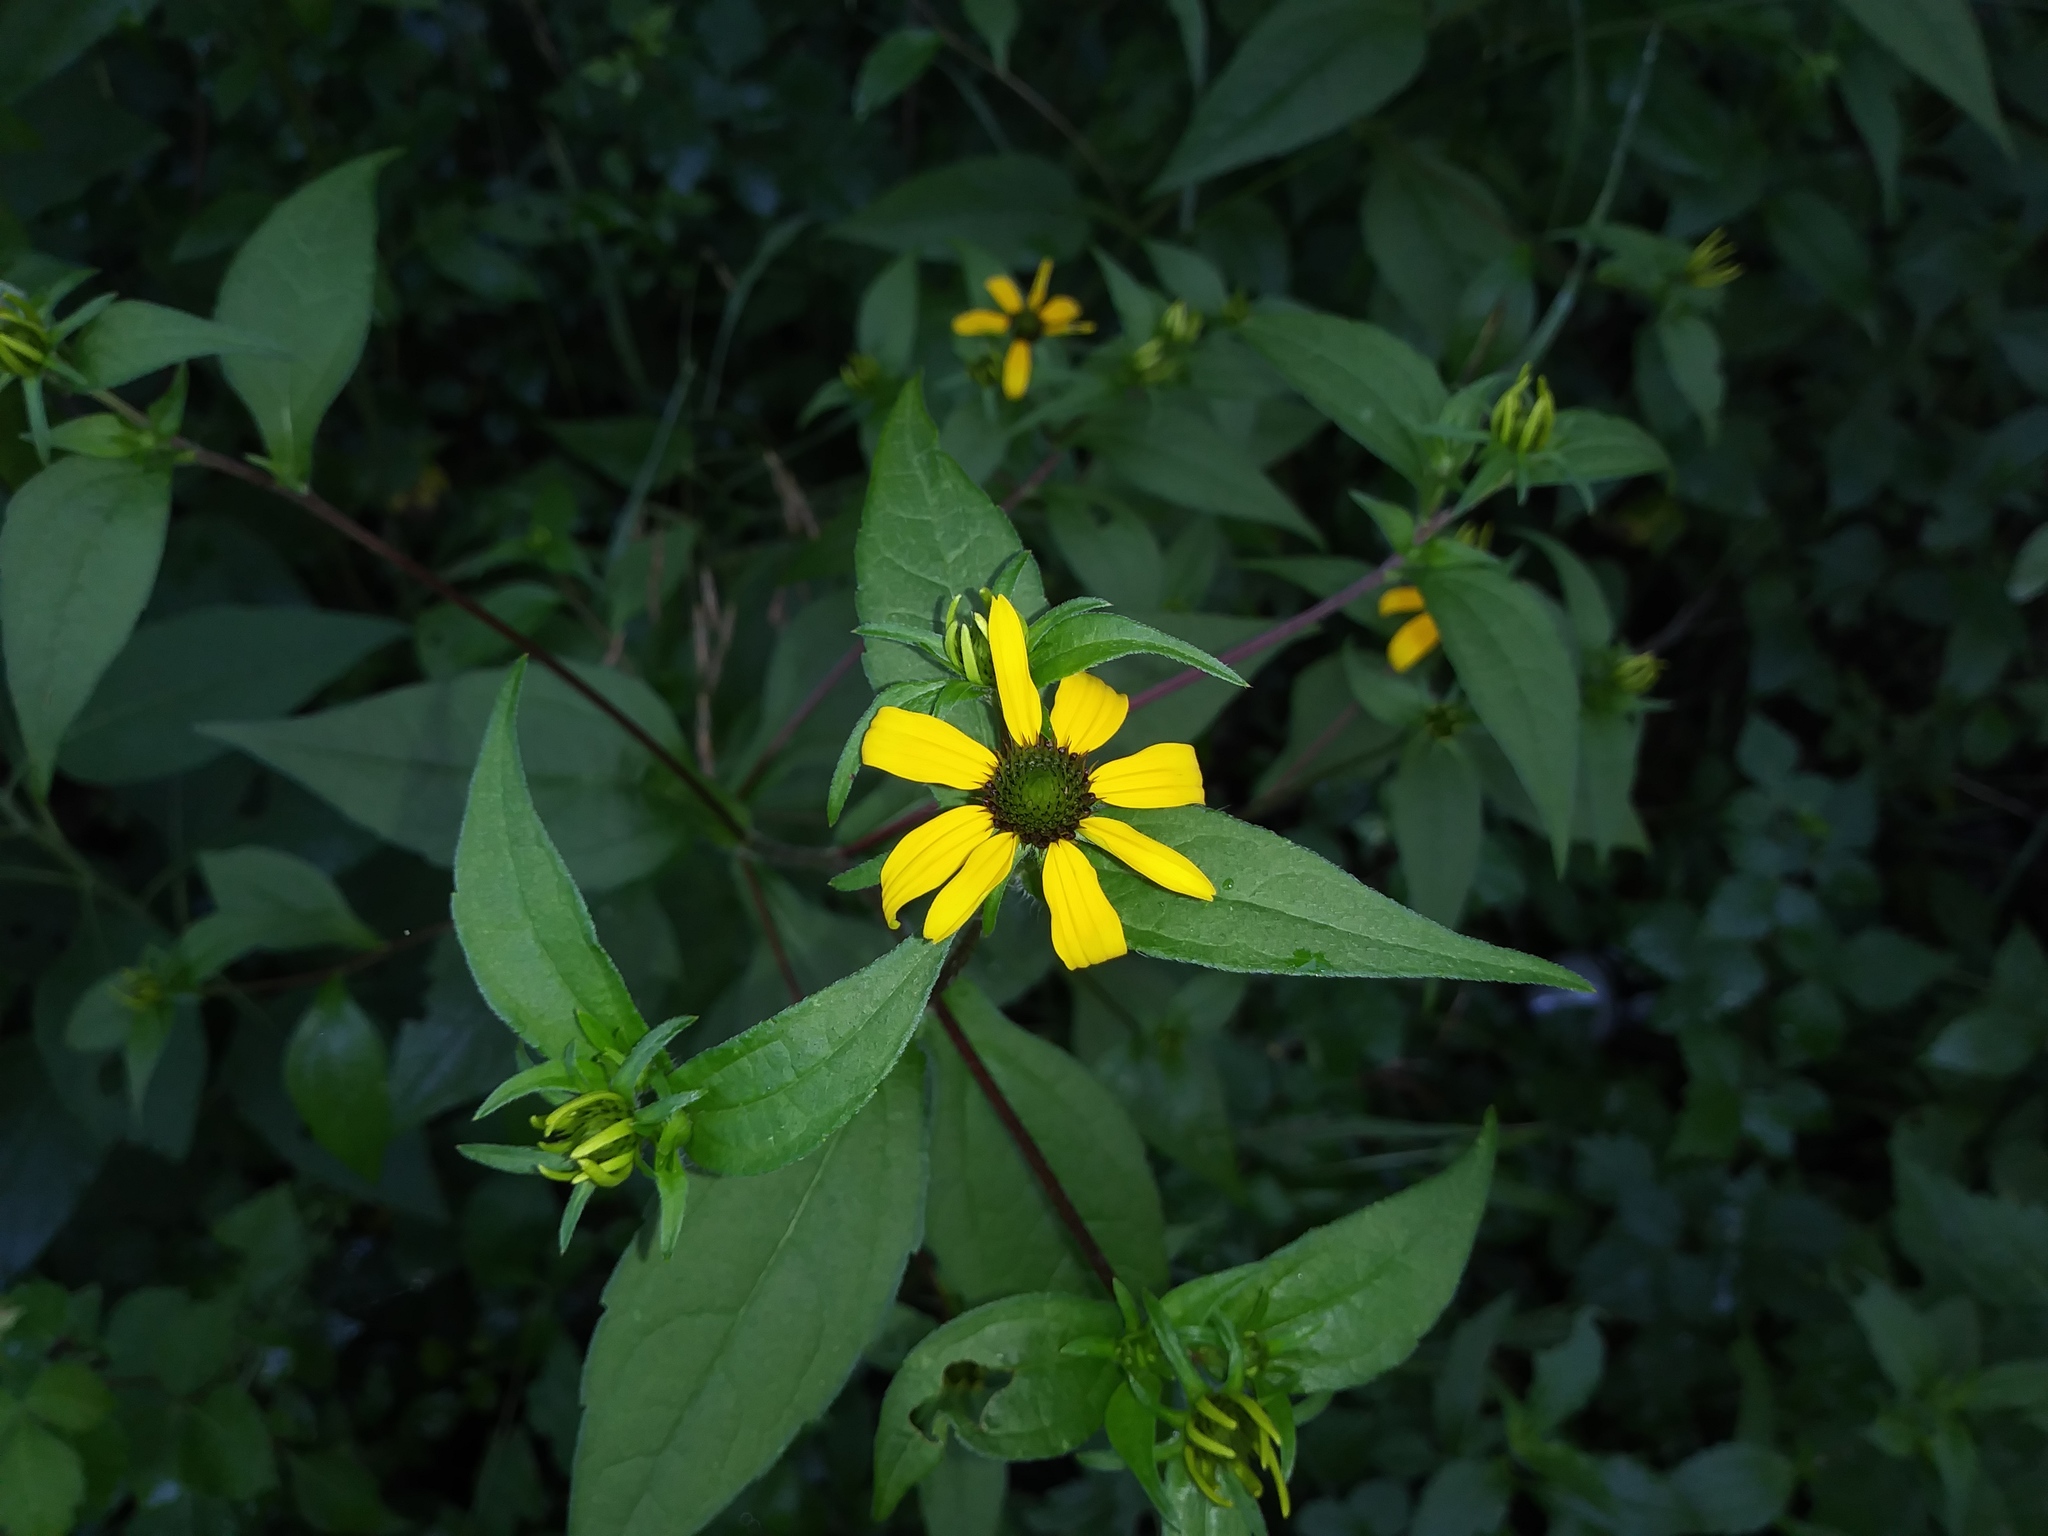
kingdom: Plantae
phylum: Tracheophyta
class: Magnoliopsida
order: Asterales
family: Asteraceae
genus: Rudbeckia
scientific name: Rudbeckia hirta
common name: Black-eyed-susan
